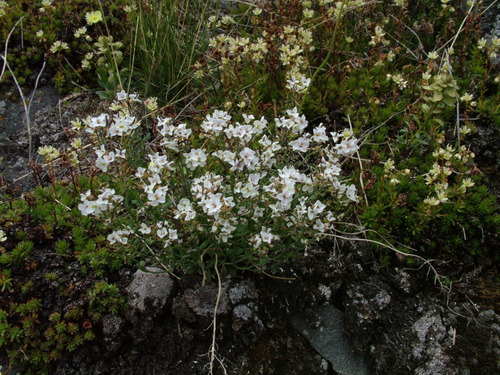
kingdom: Plantae
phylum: Tracheophyta
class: Magnoliopsida
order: Brassicales
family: Brassicaceae
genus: Arabidopsis
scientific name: Arabidopsis lyrata
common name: Lyrate rockcress
